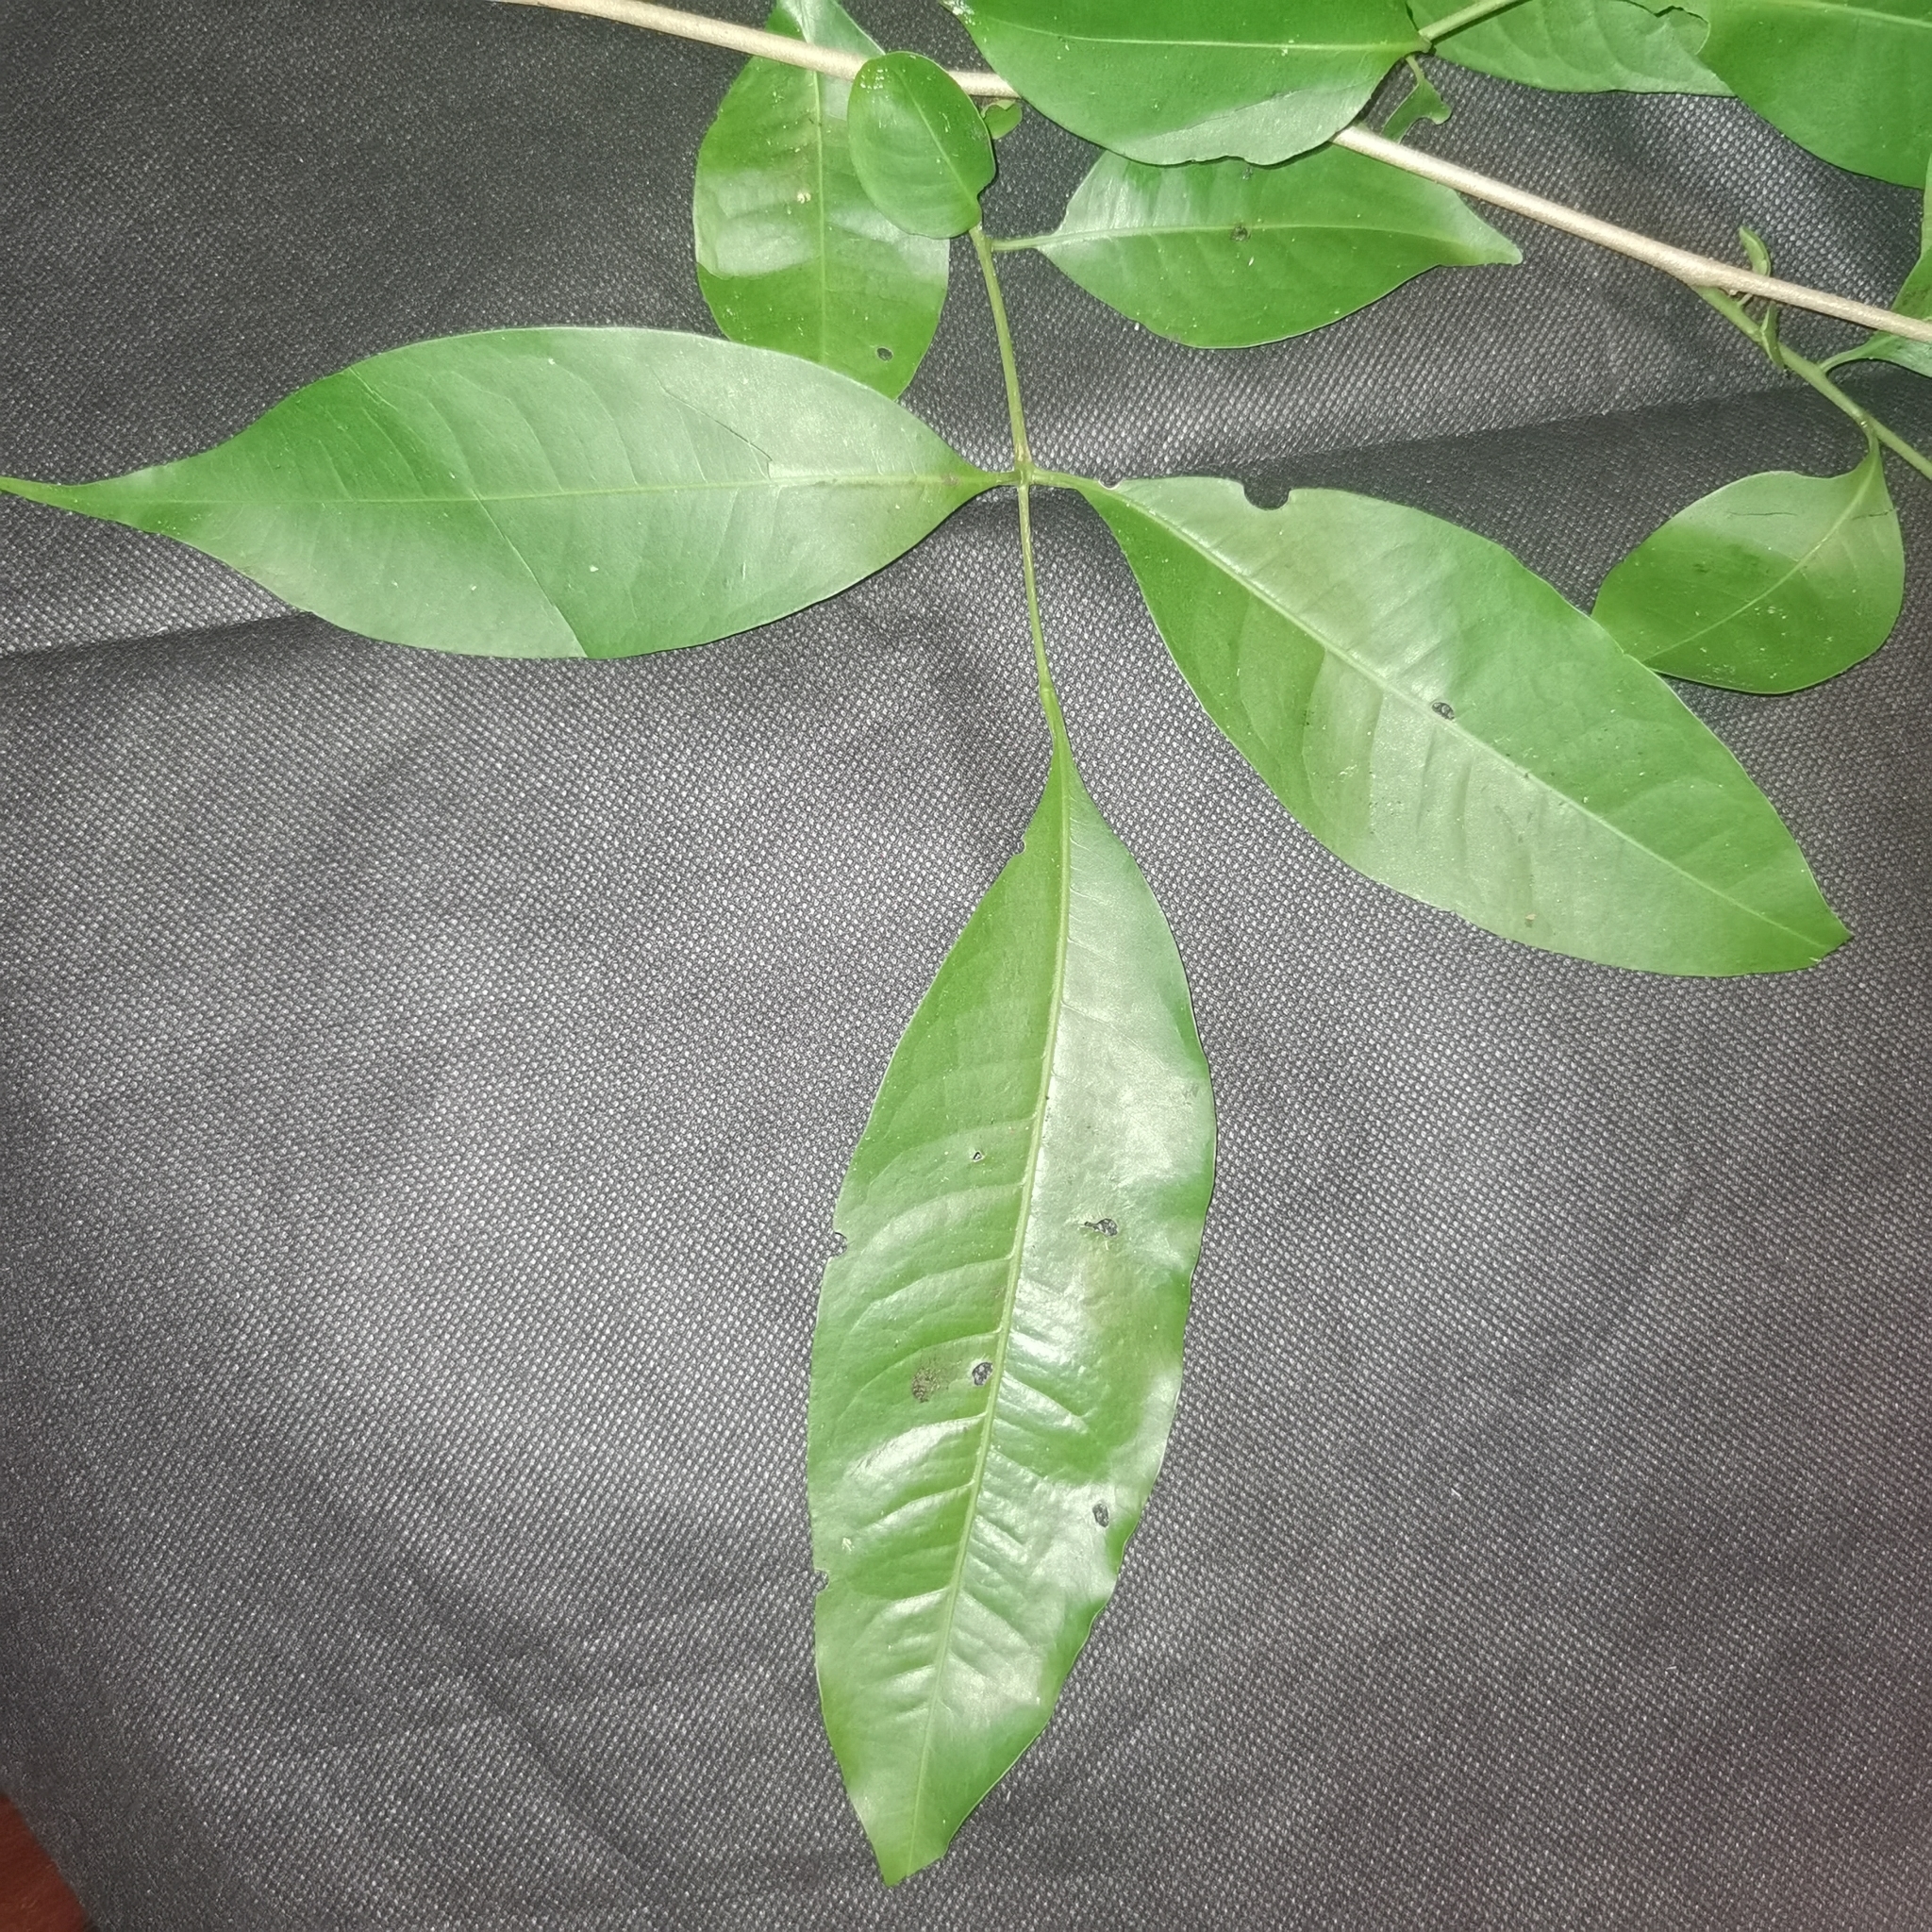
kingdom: Plantae
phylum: Tracheophyta
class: Magnoliopsida
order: Sapindales
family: Meliaceae
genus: Trichilia
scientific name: Trichilia pleeana
